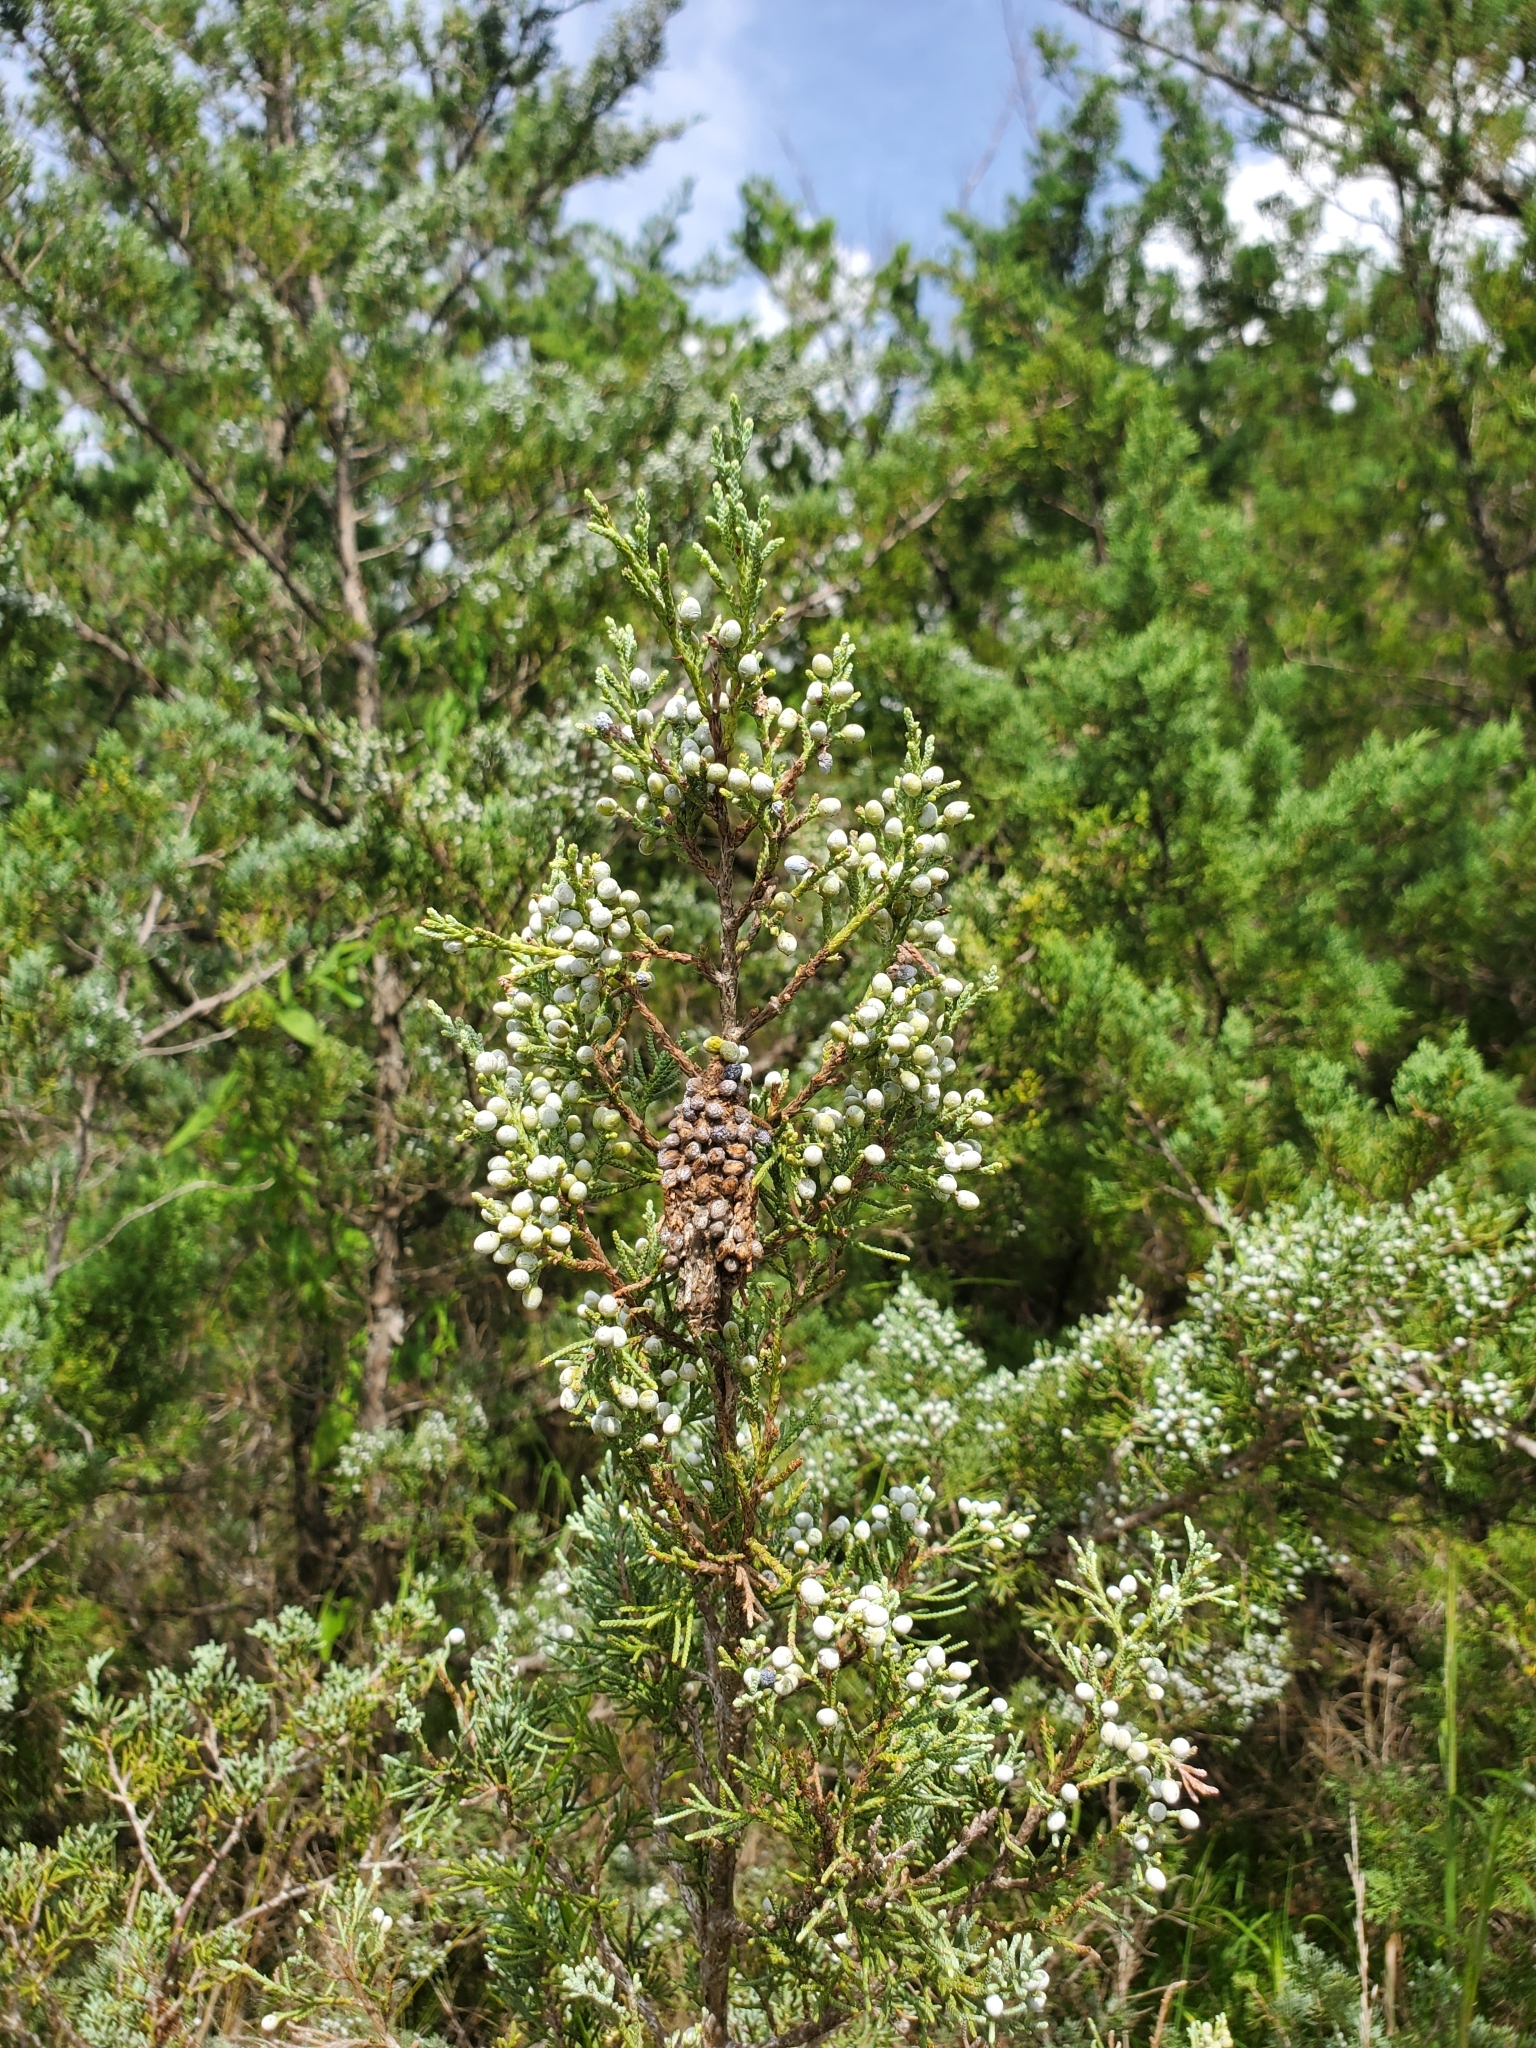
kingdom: Animalia
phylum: Arthropoda
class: Insecta
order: Lepidoptera
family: Psychidae
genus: Thyridopteryx
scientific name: Thyridopteryx ephemeraeformis
